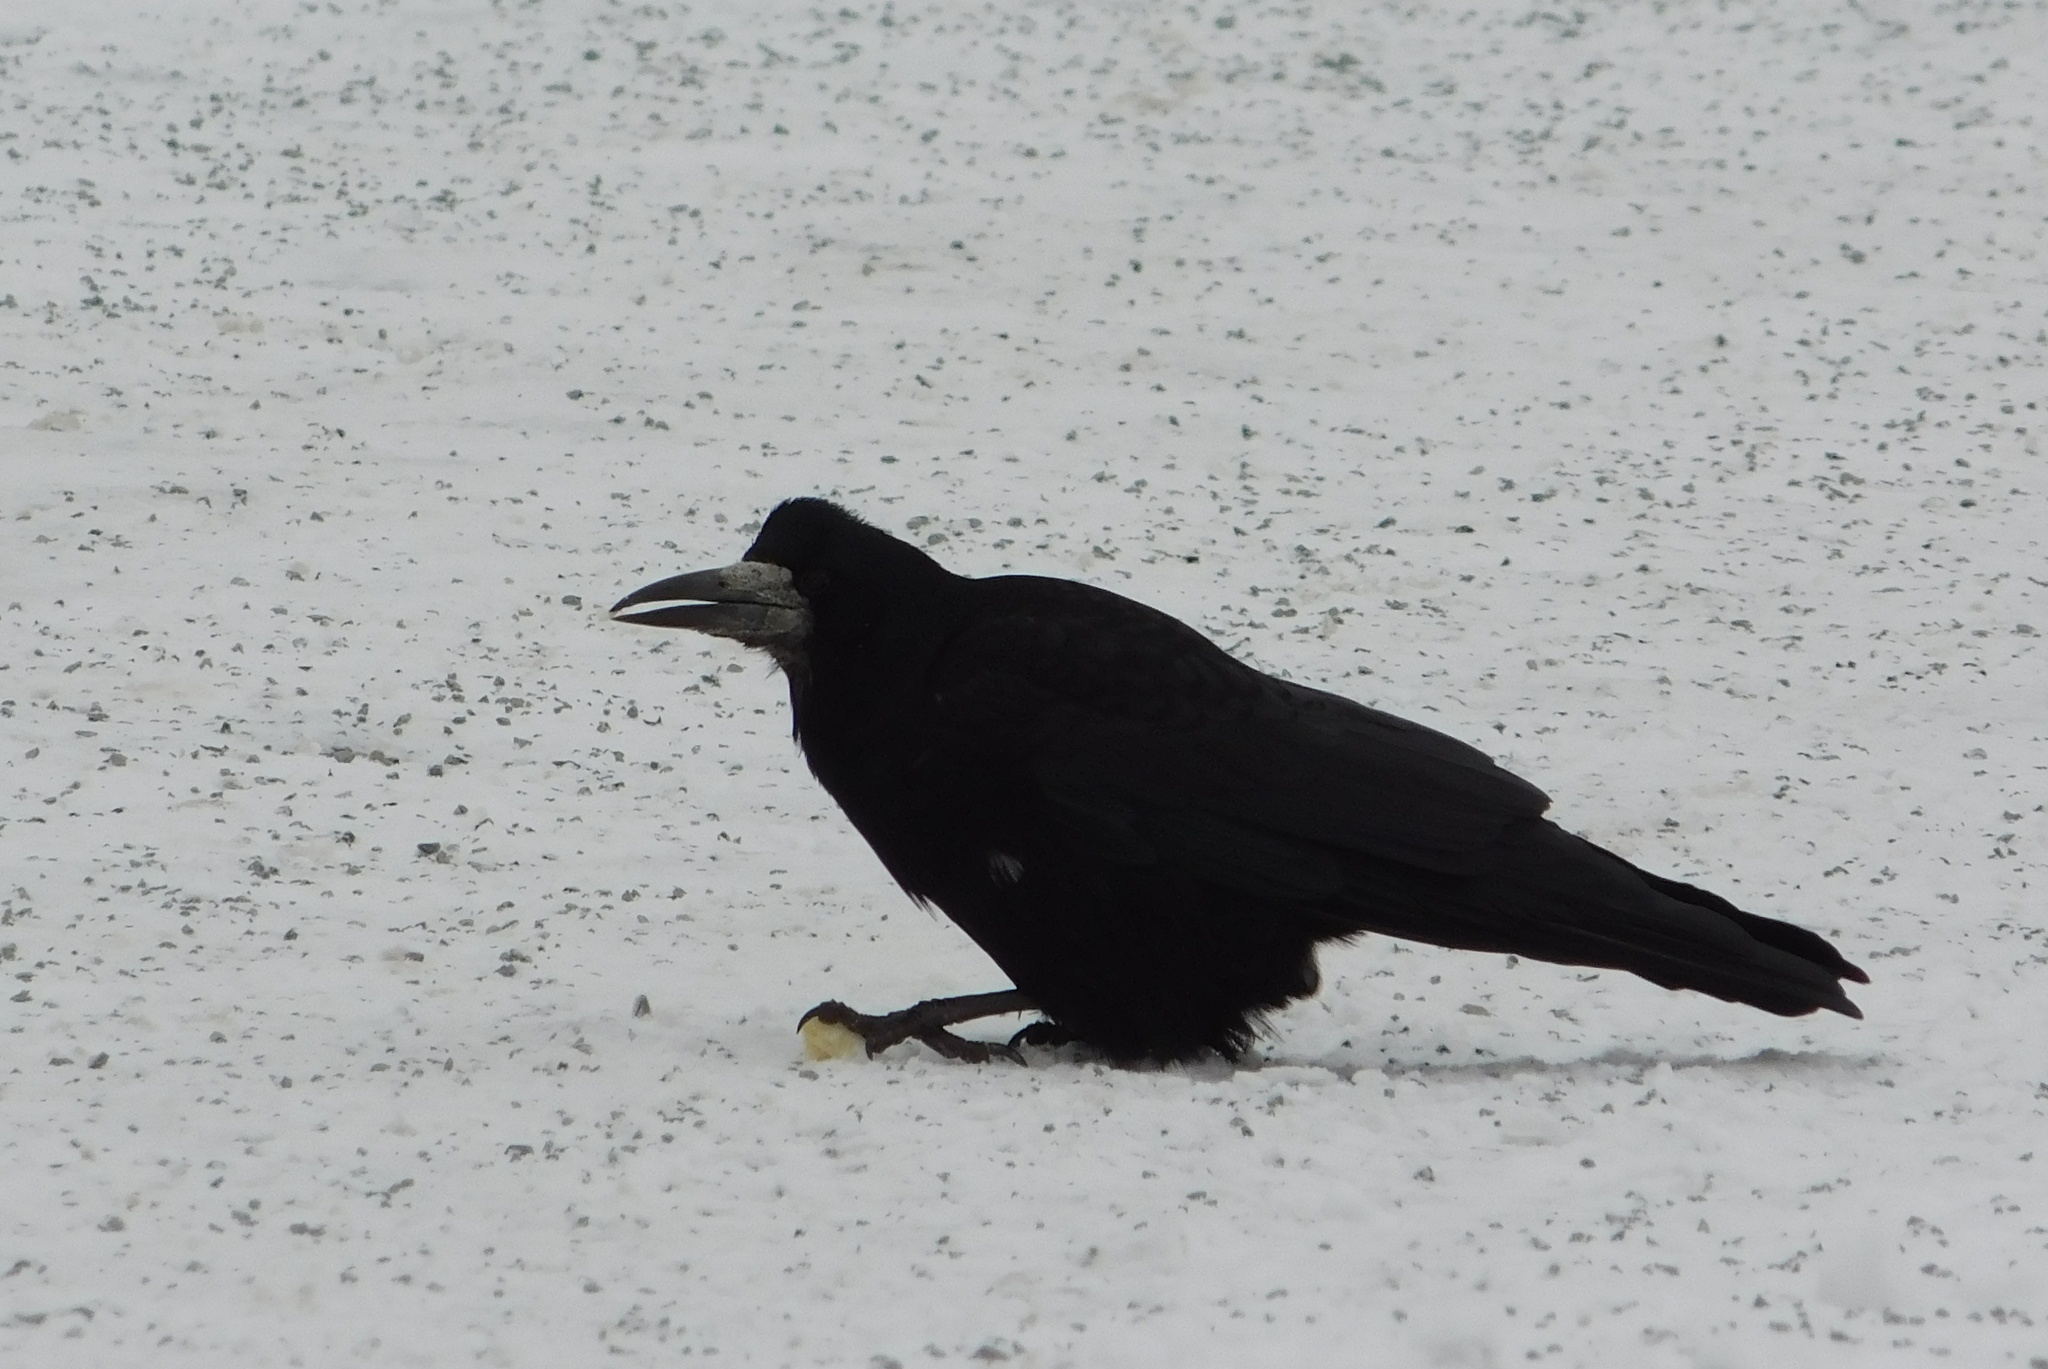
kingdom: Animalia
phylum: Chordata
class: Aves
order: Passeriformes
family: Corvidae
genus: Corvus
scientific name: Corvus frugilegus
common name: Rook
